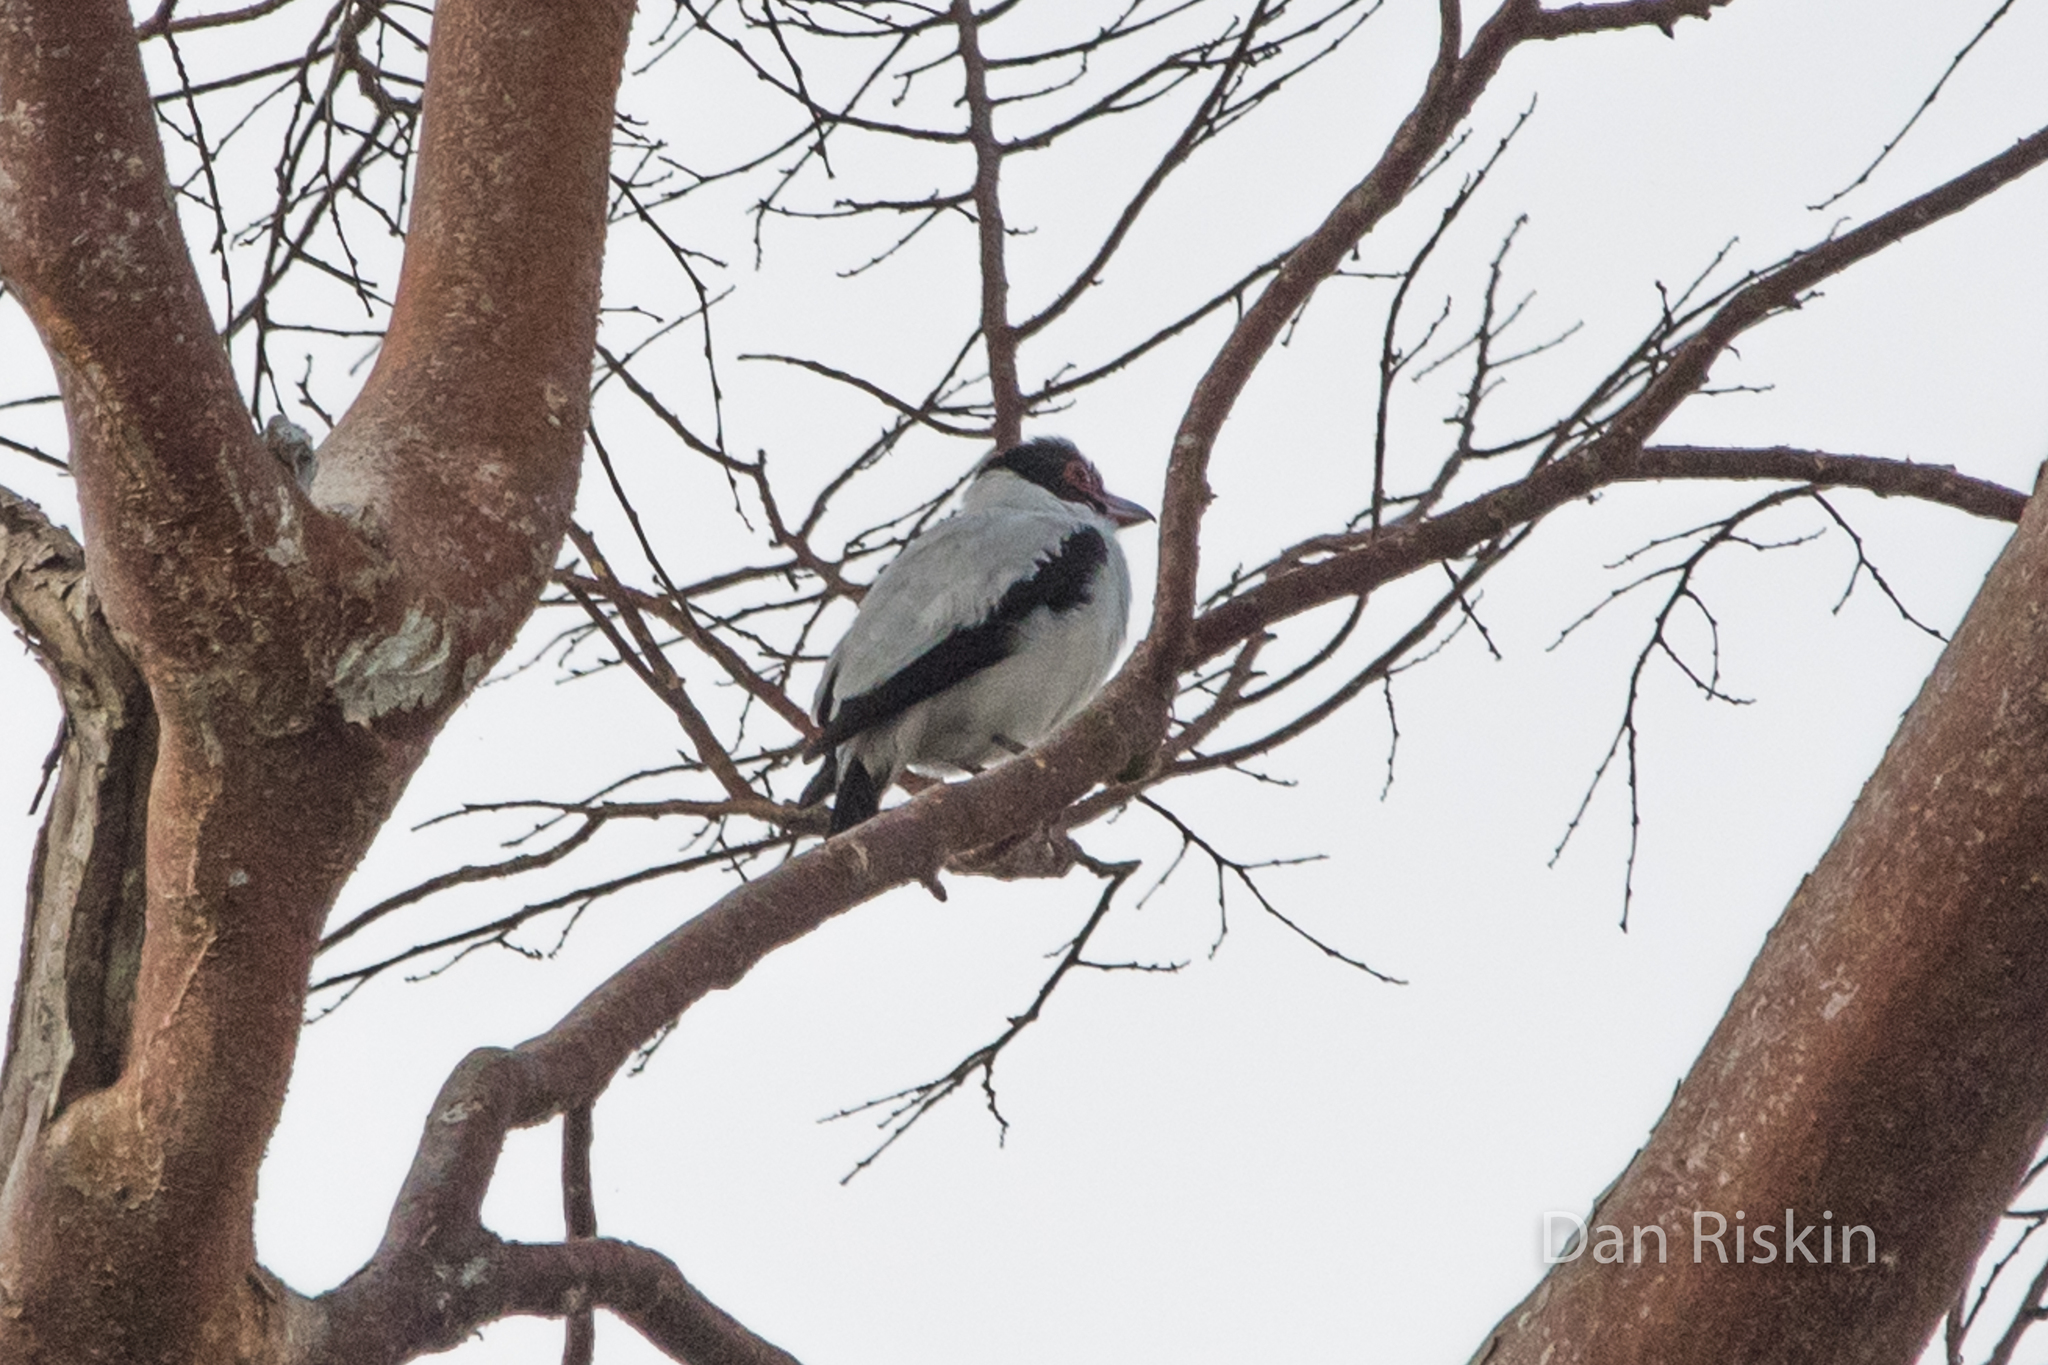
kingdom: Animalia
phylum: Chordata
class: Aves
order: Passeriformes
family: Cotingidae
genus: Tityra
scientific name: Tityra cayana
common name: Black-tailed tityra
